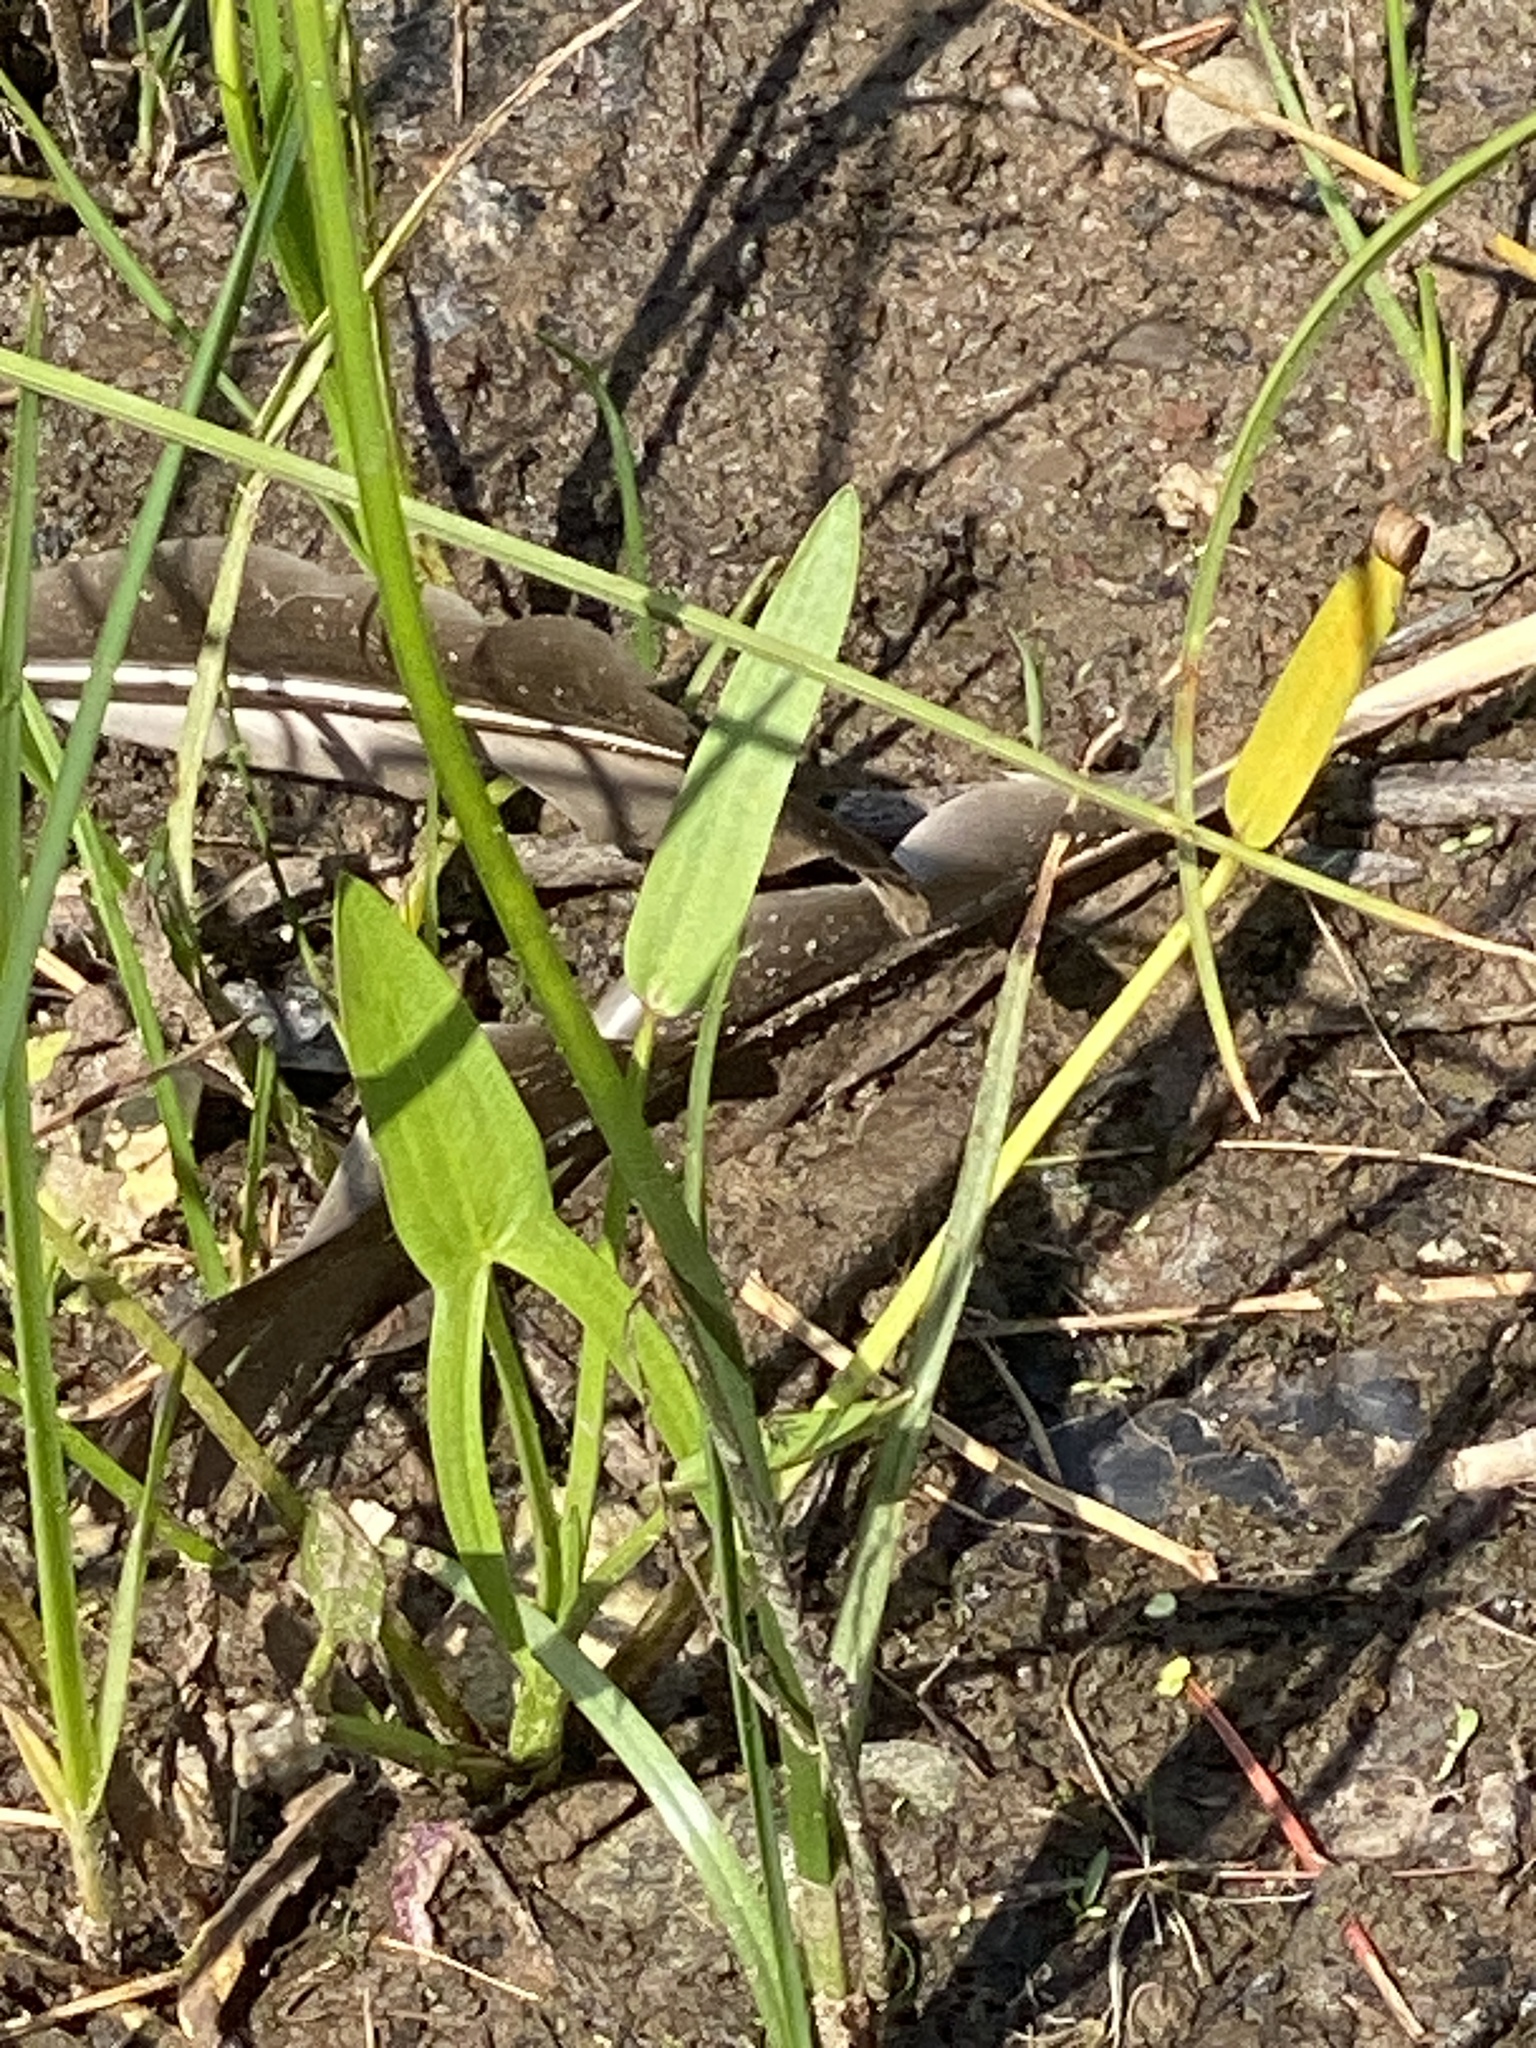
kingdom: Plantae
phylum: Tracheophyta
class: Liliopsida
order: Alismatales
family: Alismataceae
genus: Sagittaria
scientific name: Sagittaria latifolia
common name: Duck-potato
